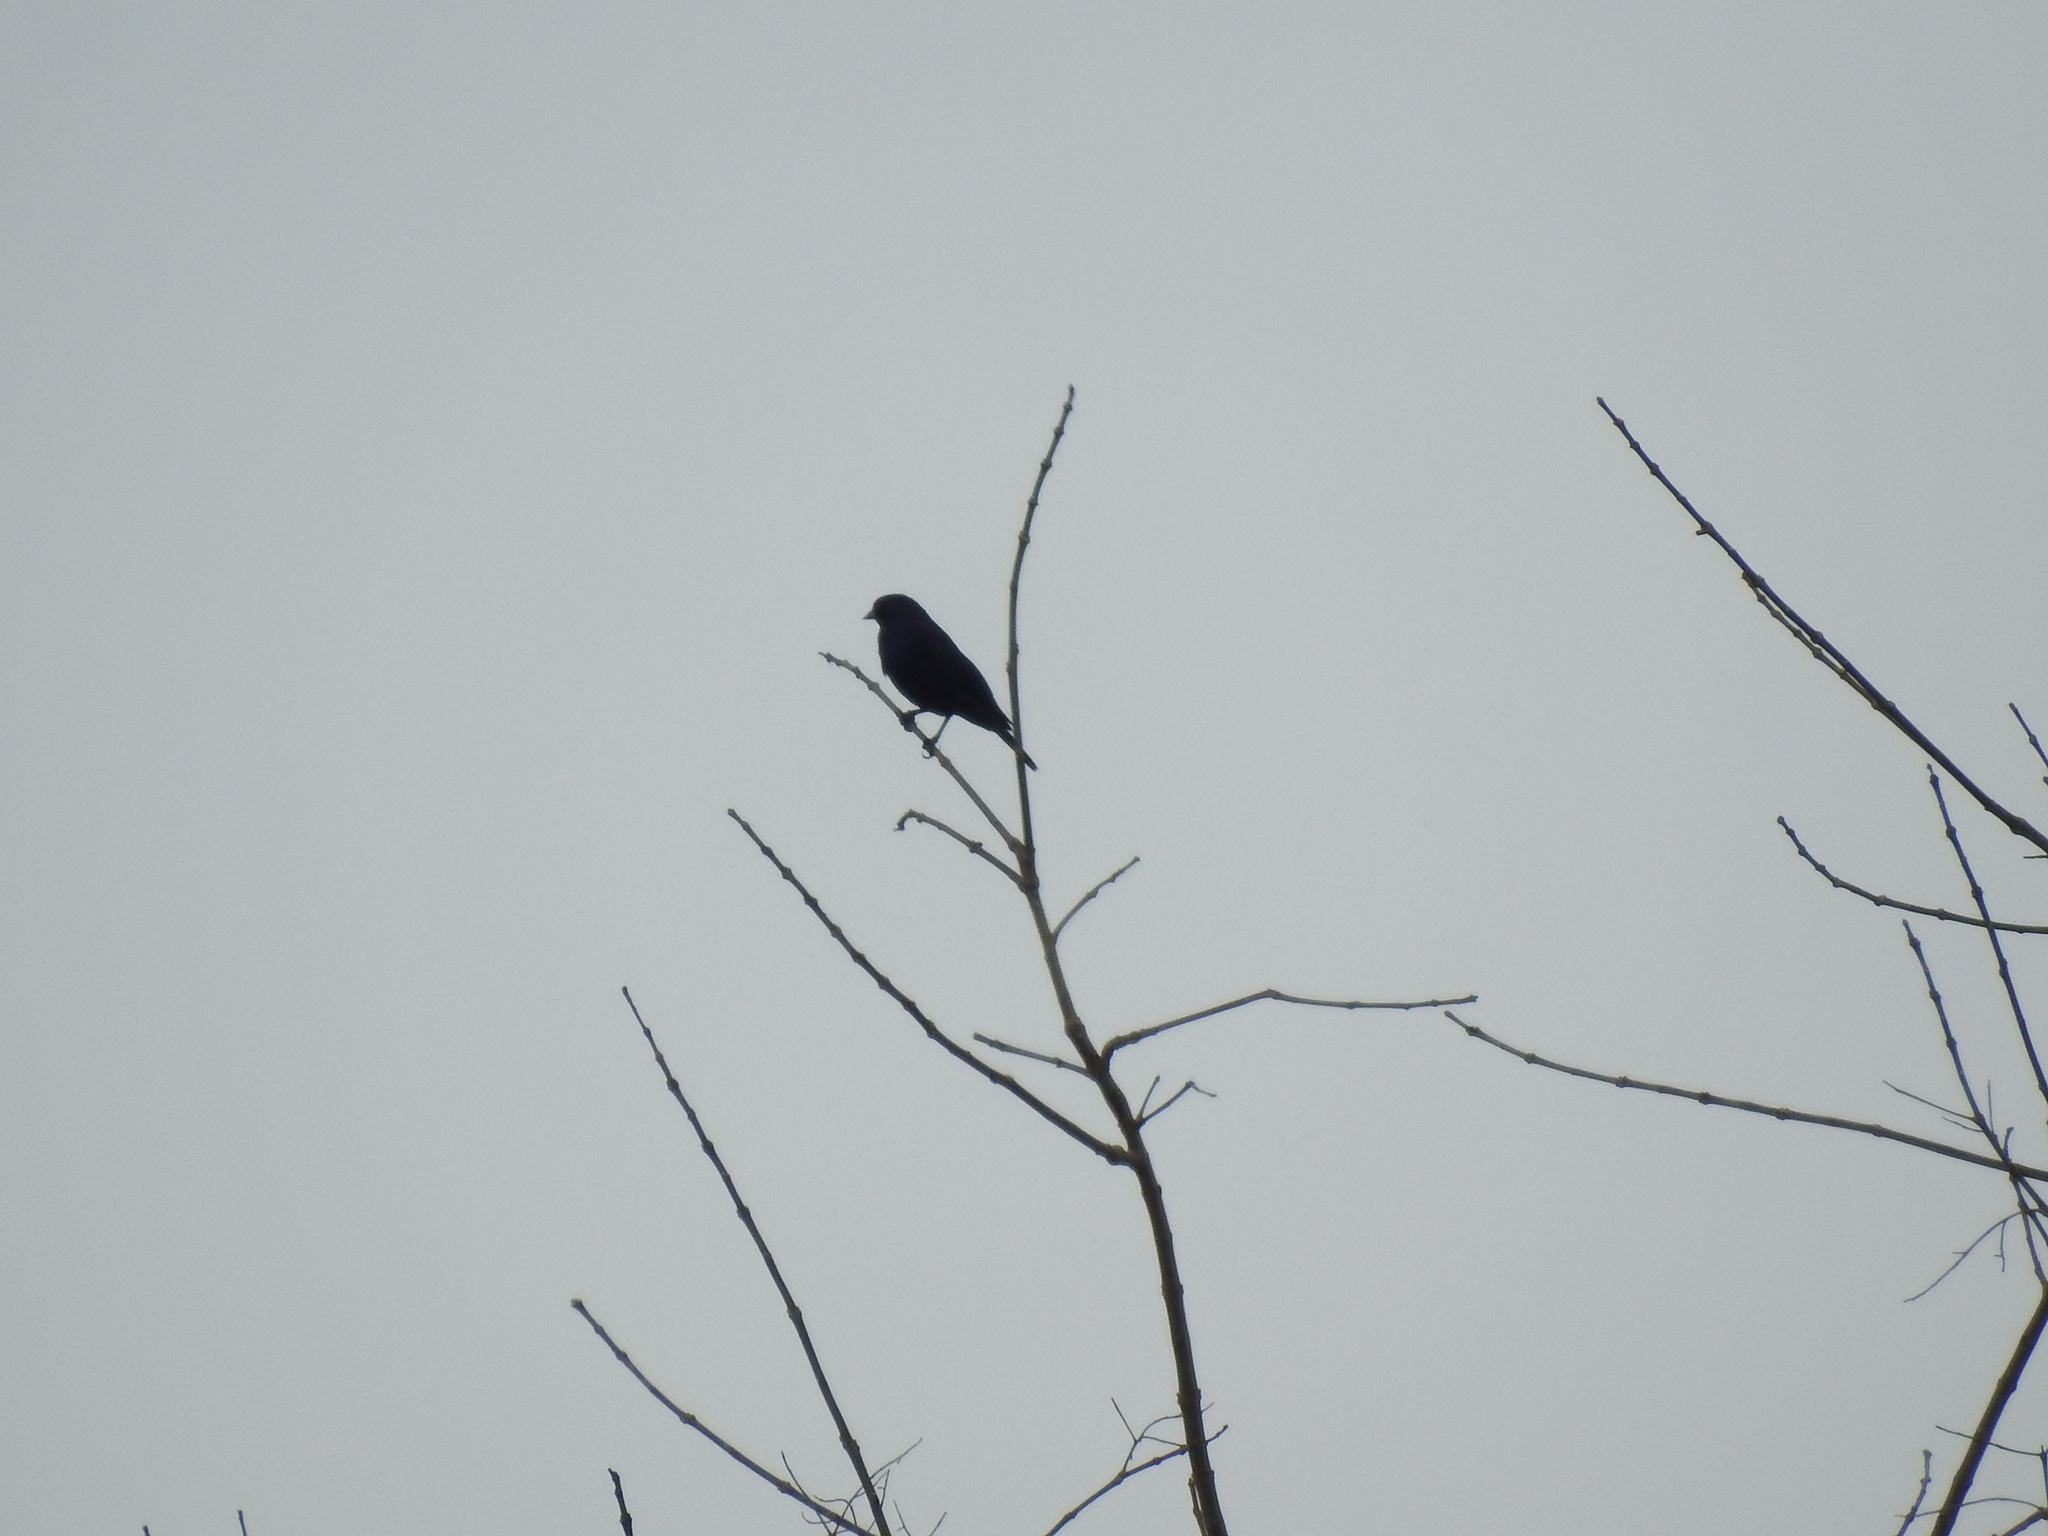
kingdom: Animalia
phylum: Chordata
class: Aves
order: Passeriformes
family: Icteridae
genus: Molothrus
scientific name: Molothrus bonariensis
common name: Shiny cowbird
